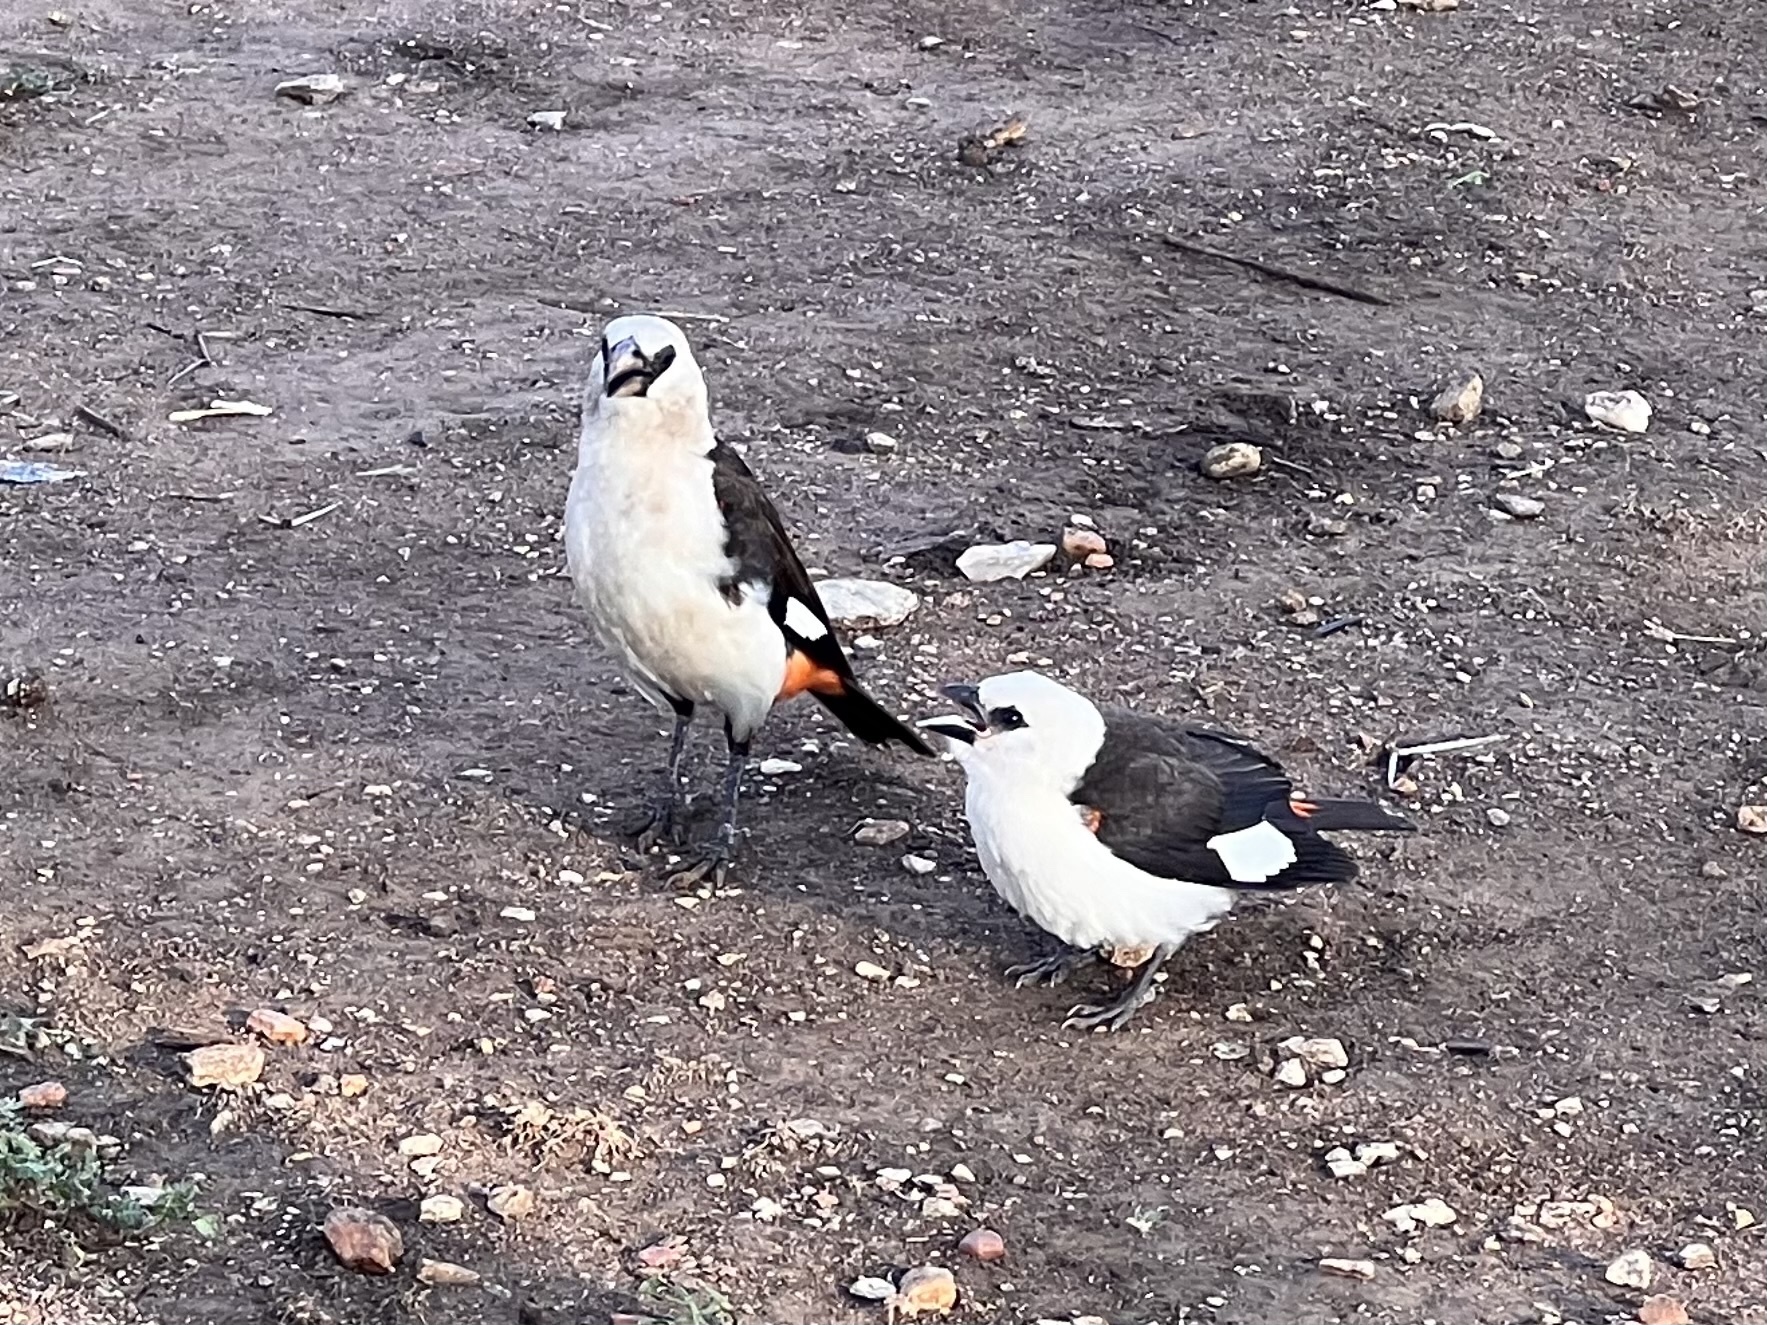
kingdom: Animalia
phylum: Chordata
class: Aves
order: Passeriformes
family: Ploceidae
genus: Dinemellia
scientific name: Dinemellia dinemelli
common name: White-headed buffalo weaver
